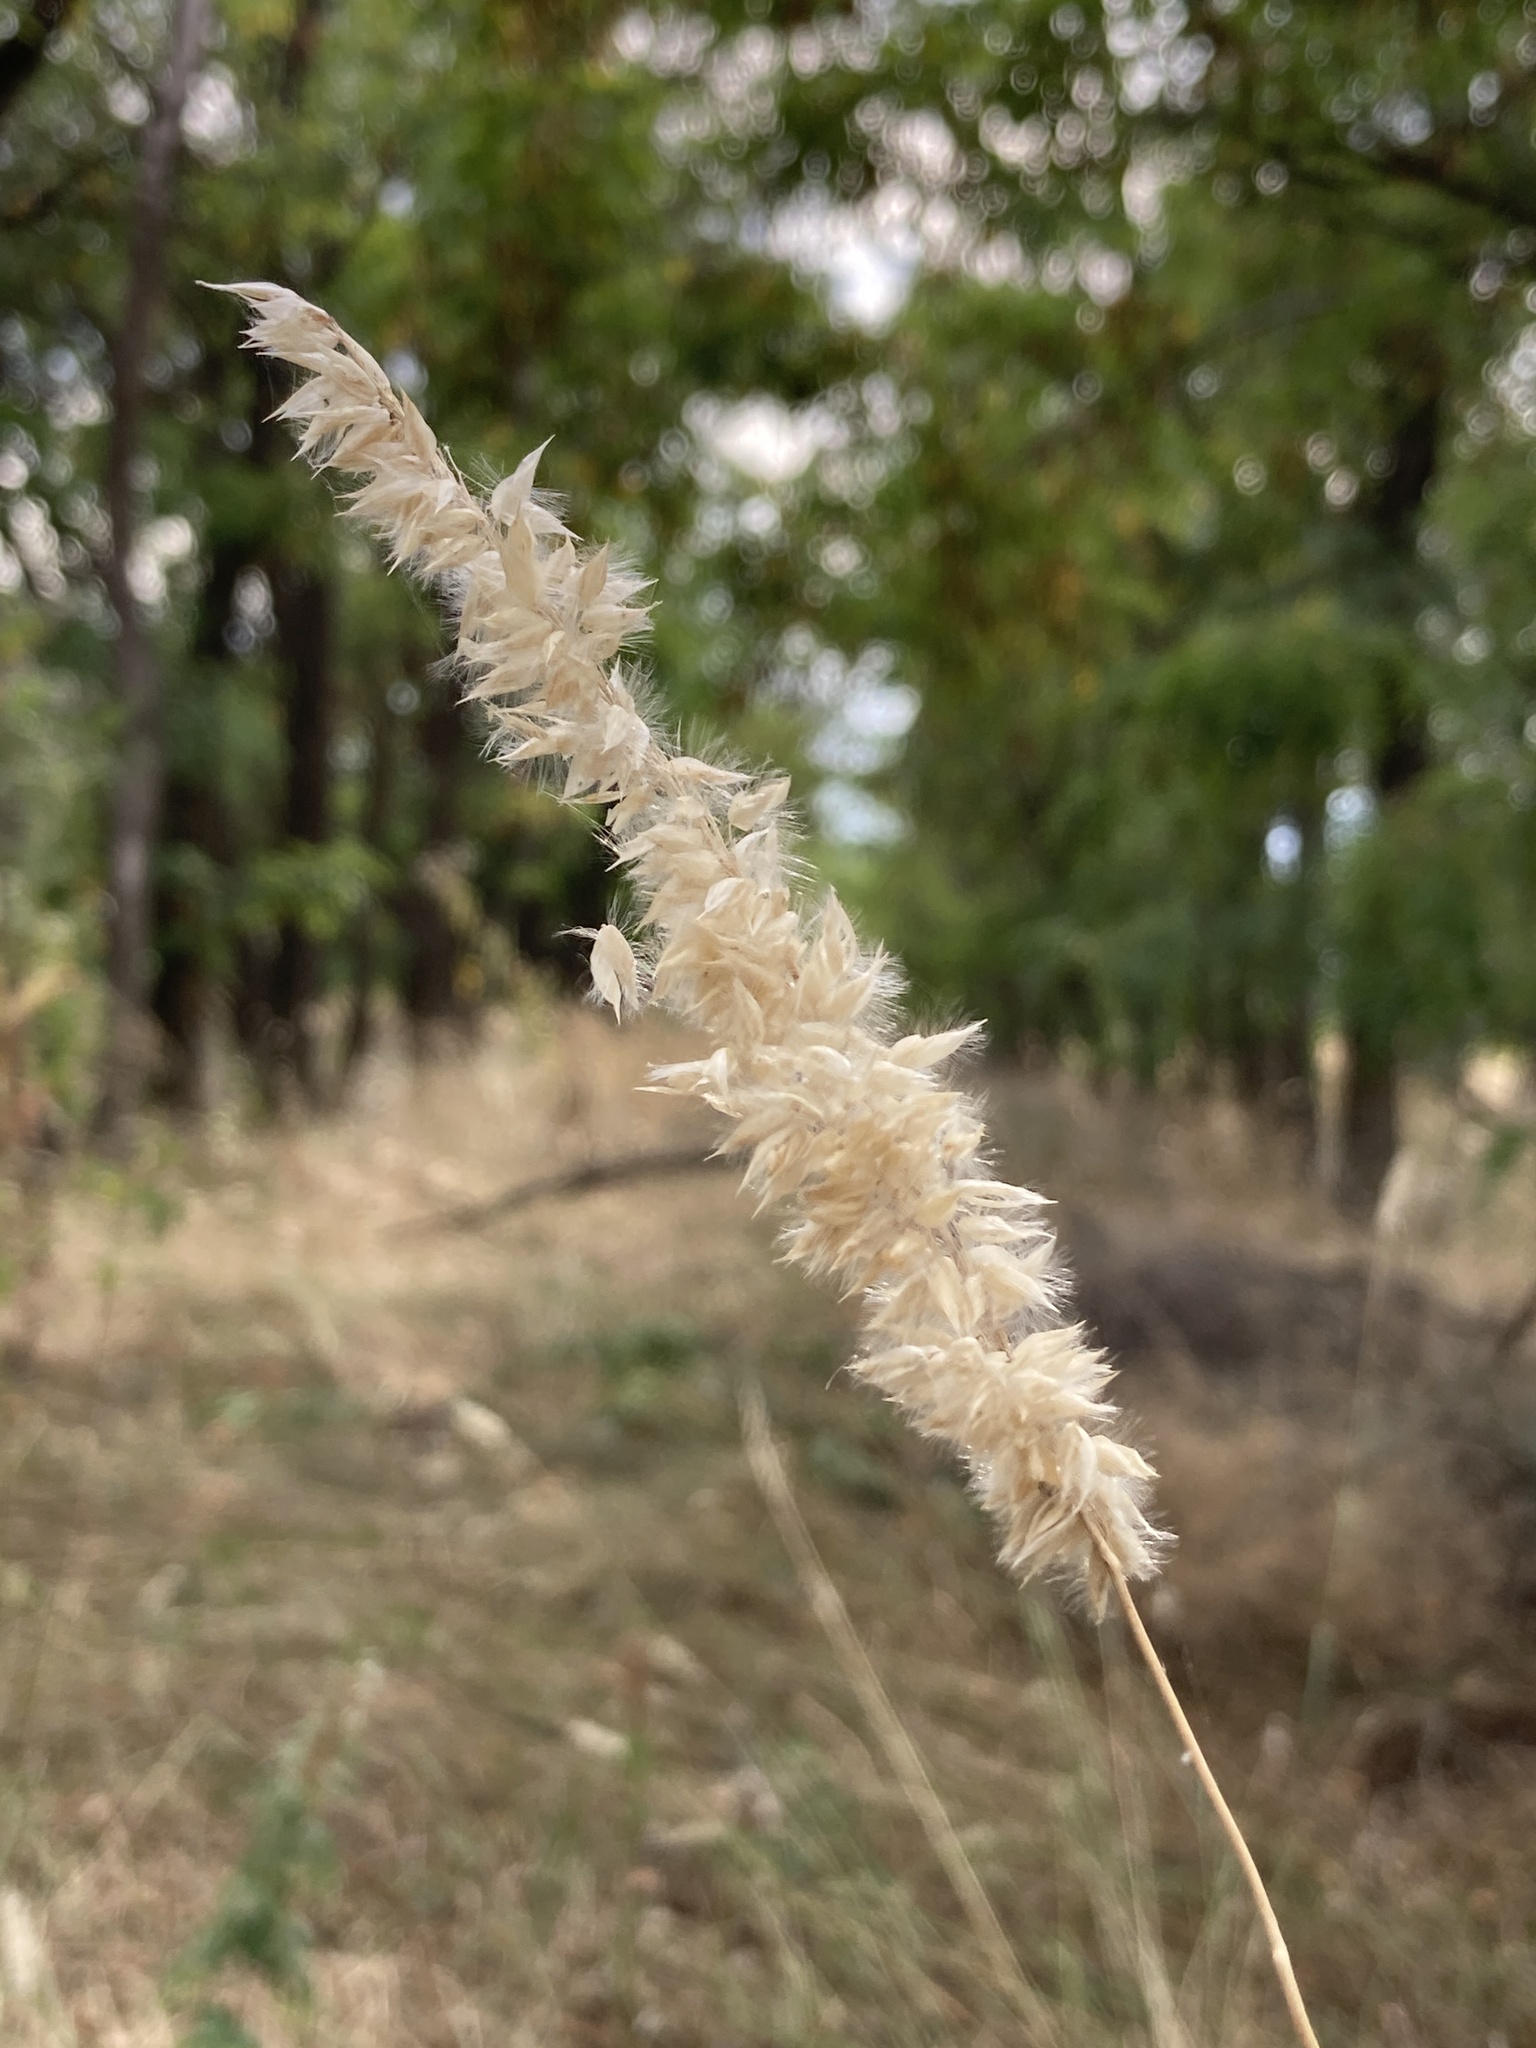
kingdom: Plantae
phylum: Tracheophyta
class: Liliopsida
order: Poales
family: Poaceae
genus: Melica
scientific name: Melica transsilvanica
